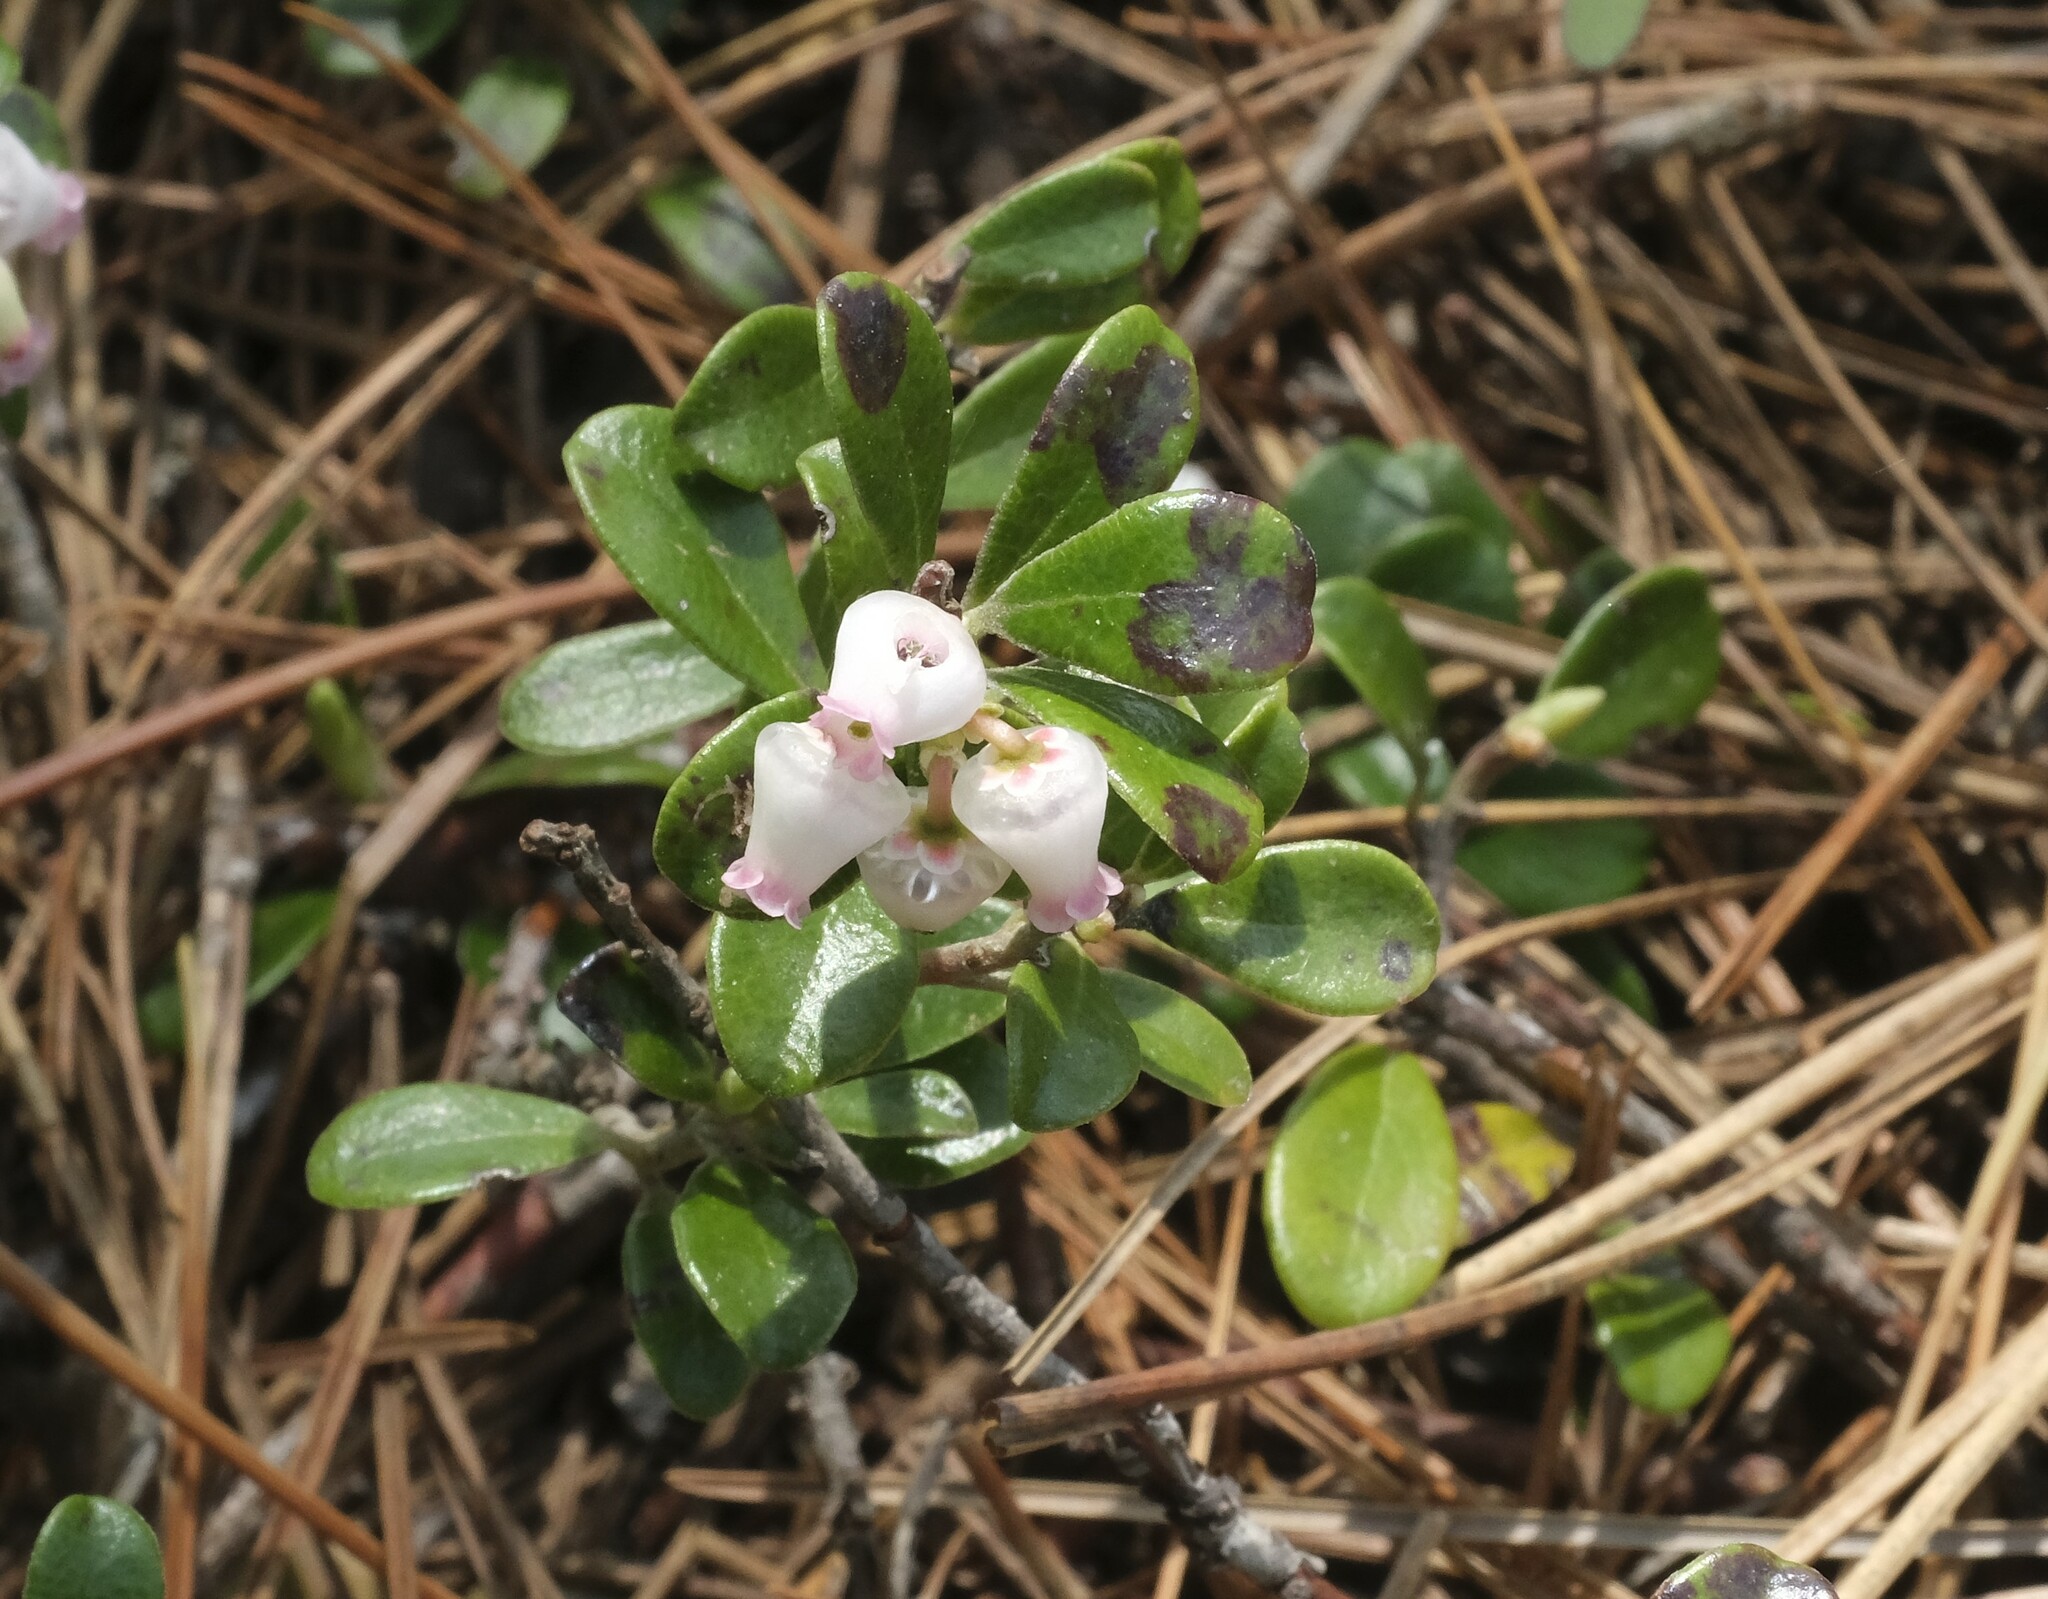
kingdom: Plantae
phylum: Tracheophyta
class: Magnoliopsida
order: Ericales
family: Ericaceae
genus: Arctostaphylos
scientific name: Arctostaphylos uva-ursi
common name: Bearberry
